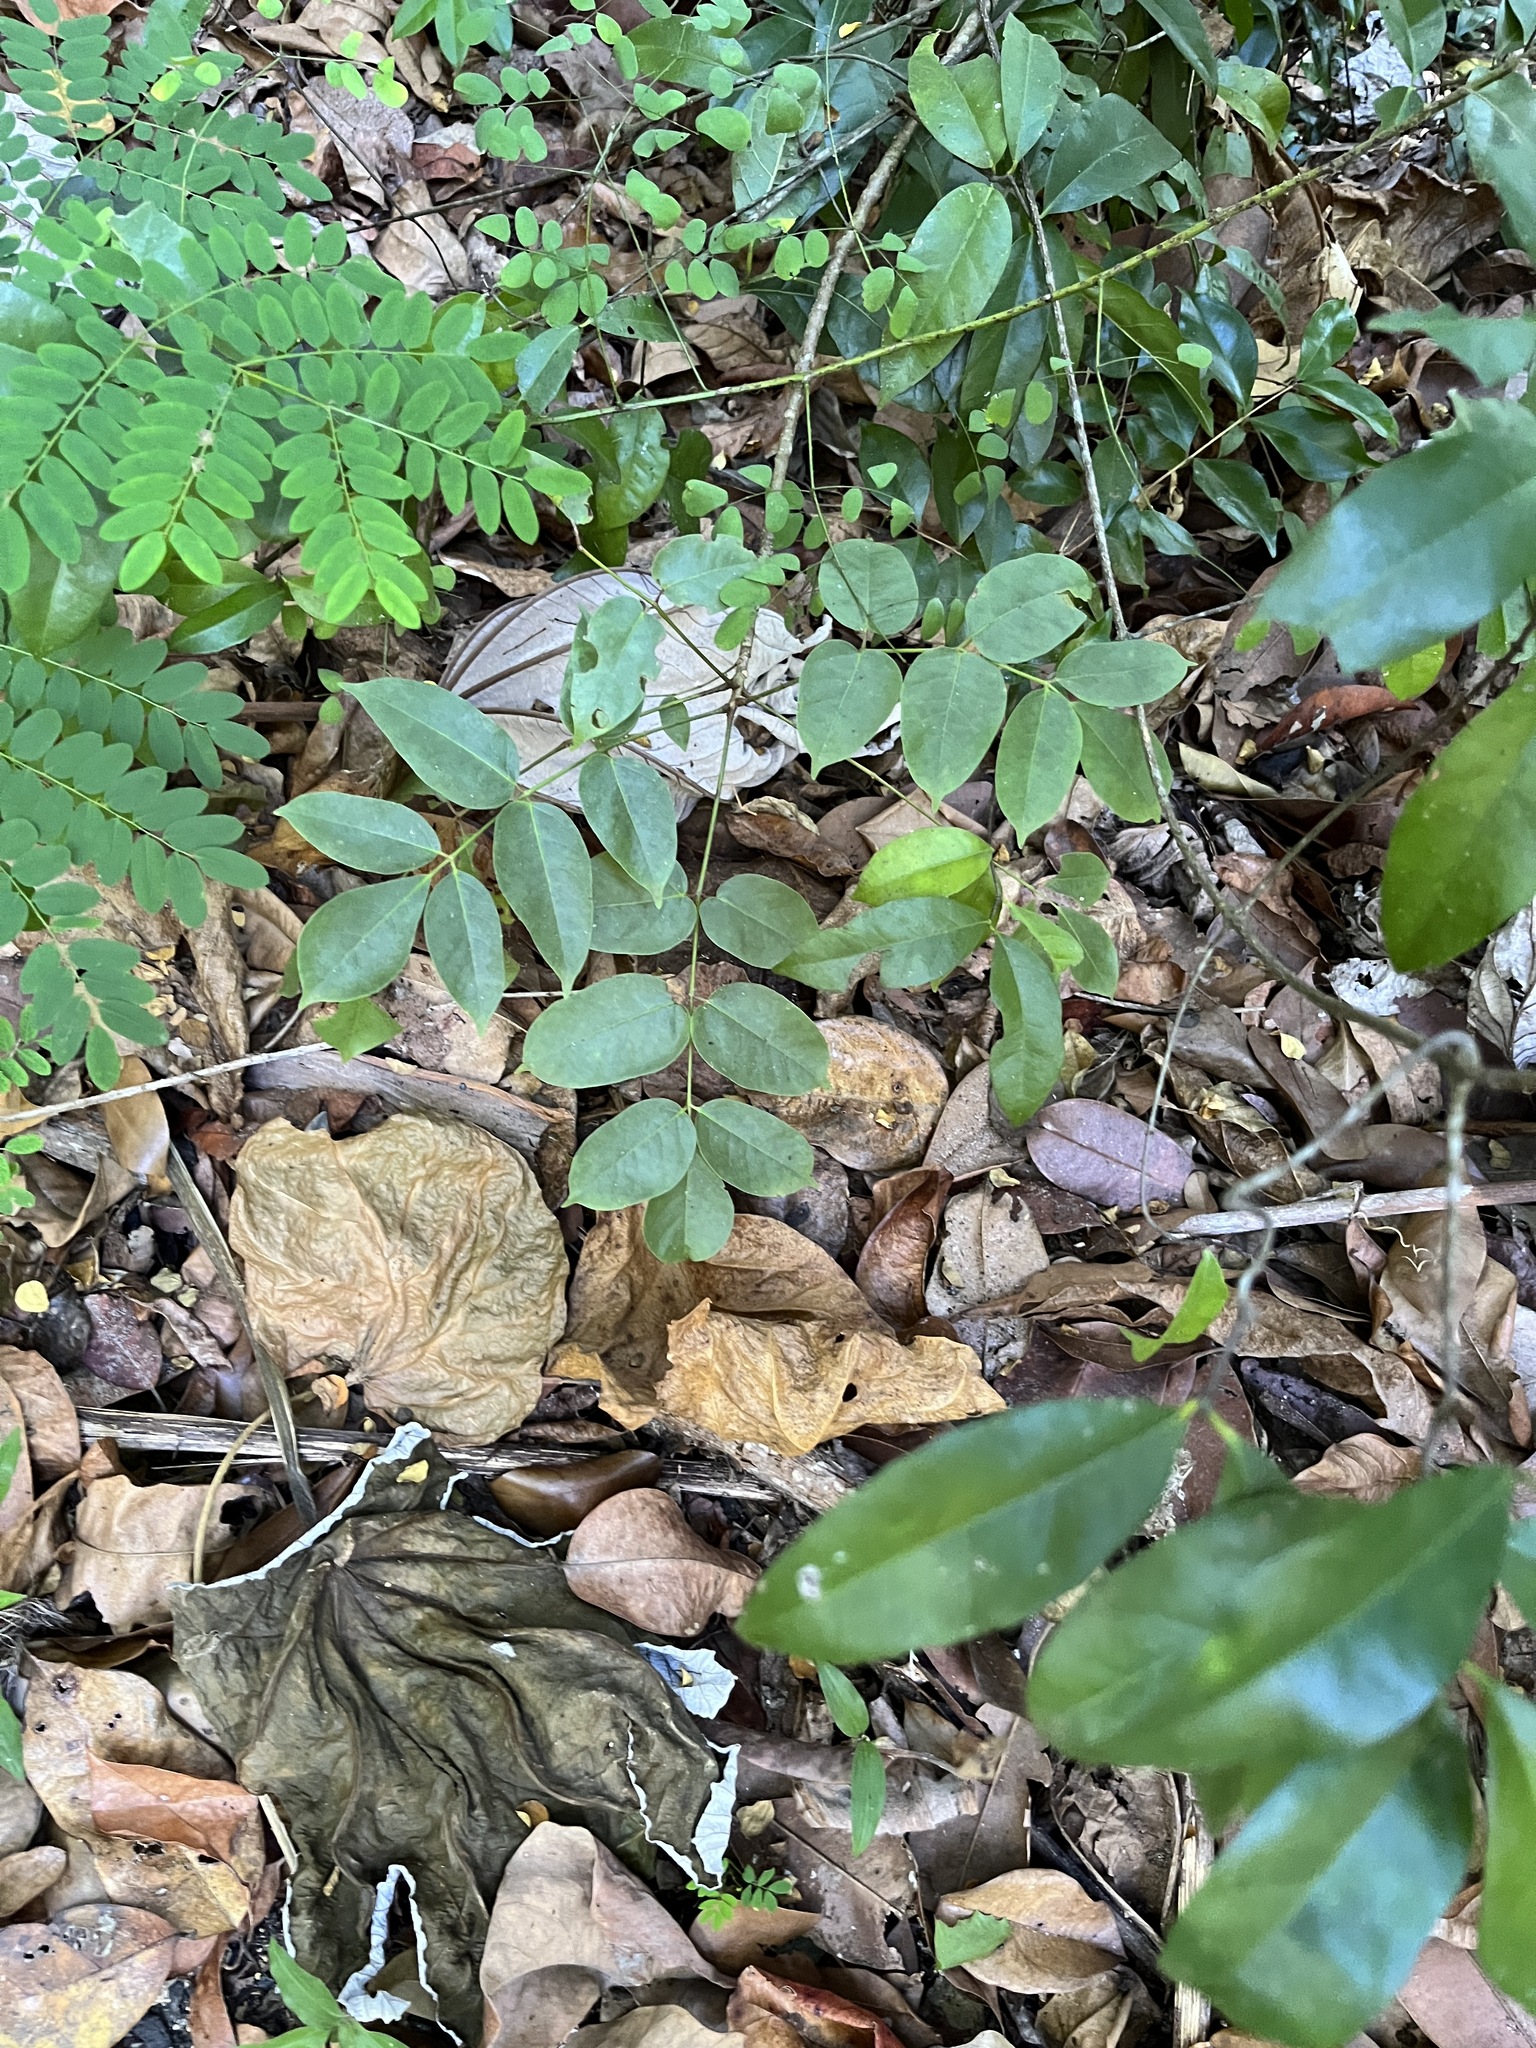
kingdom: Plantae
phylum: Tracheophyta
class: Magnoliopsida
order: Sapindales
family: Burseraceae
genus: Bursera
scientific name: Bursera simaruba
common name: Turpentine tree
